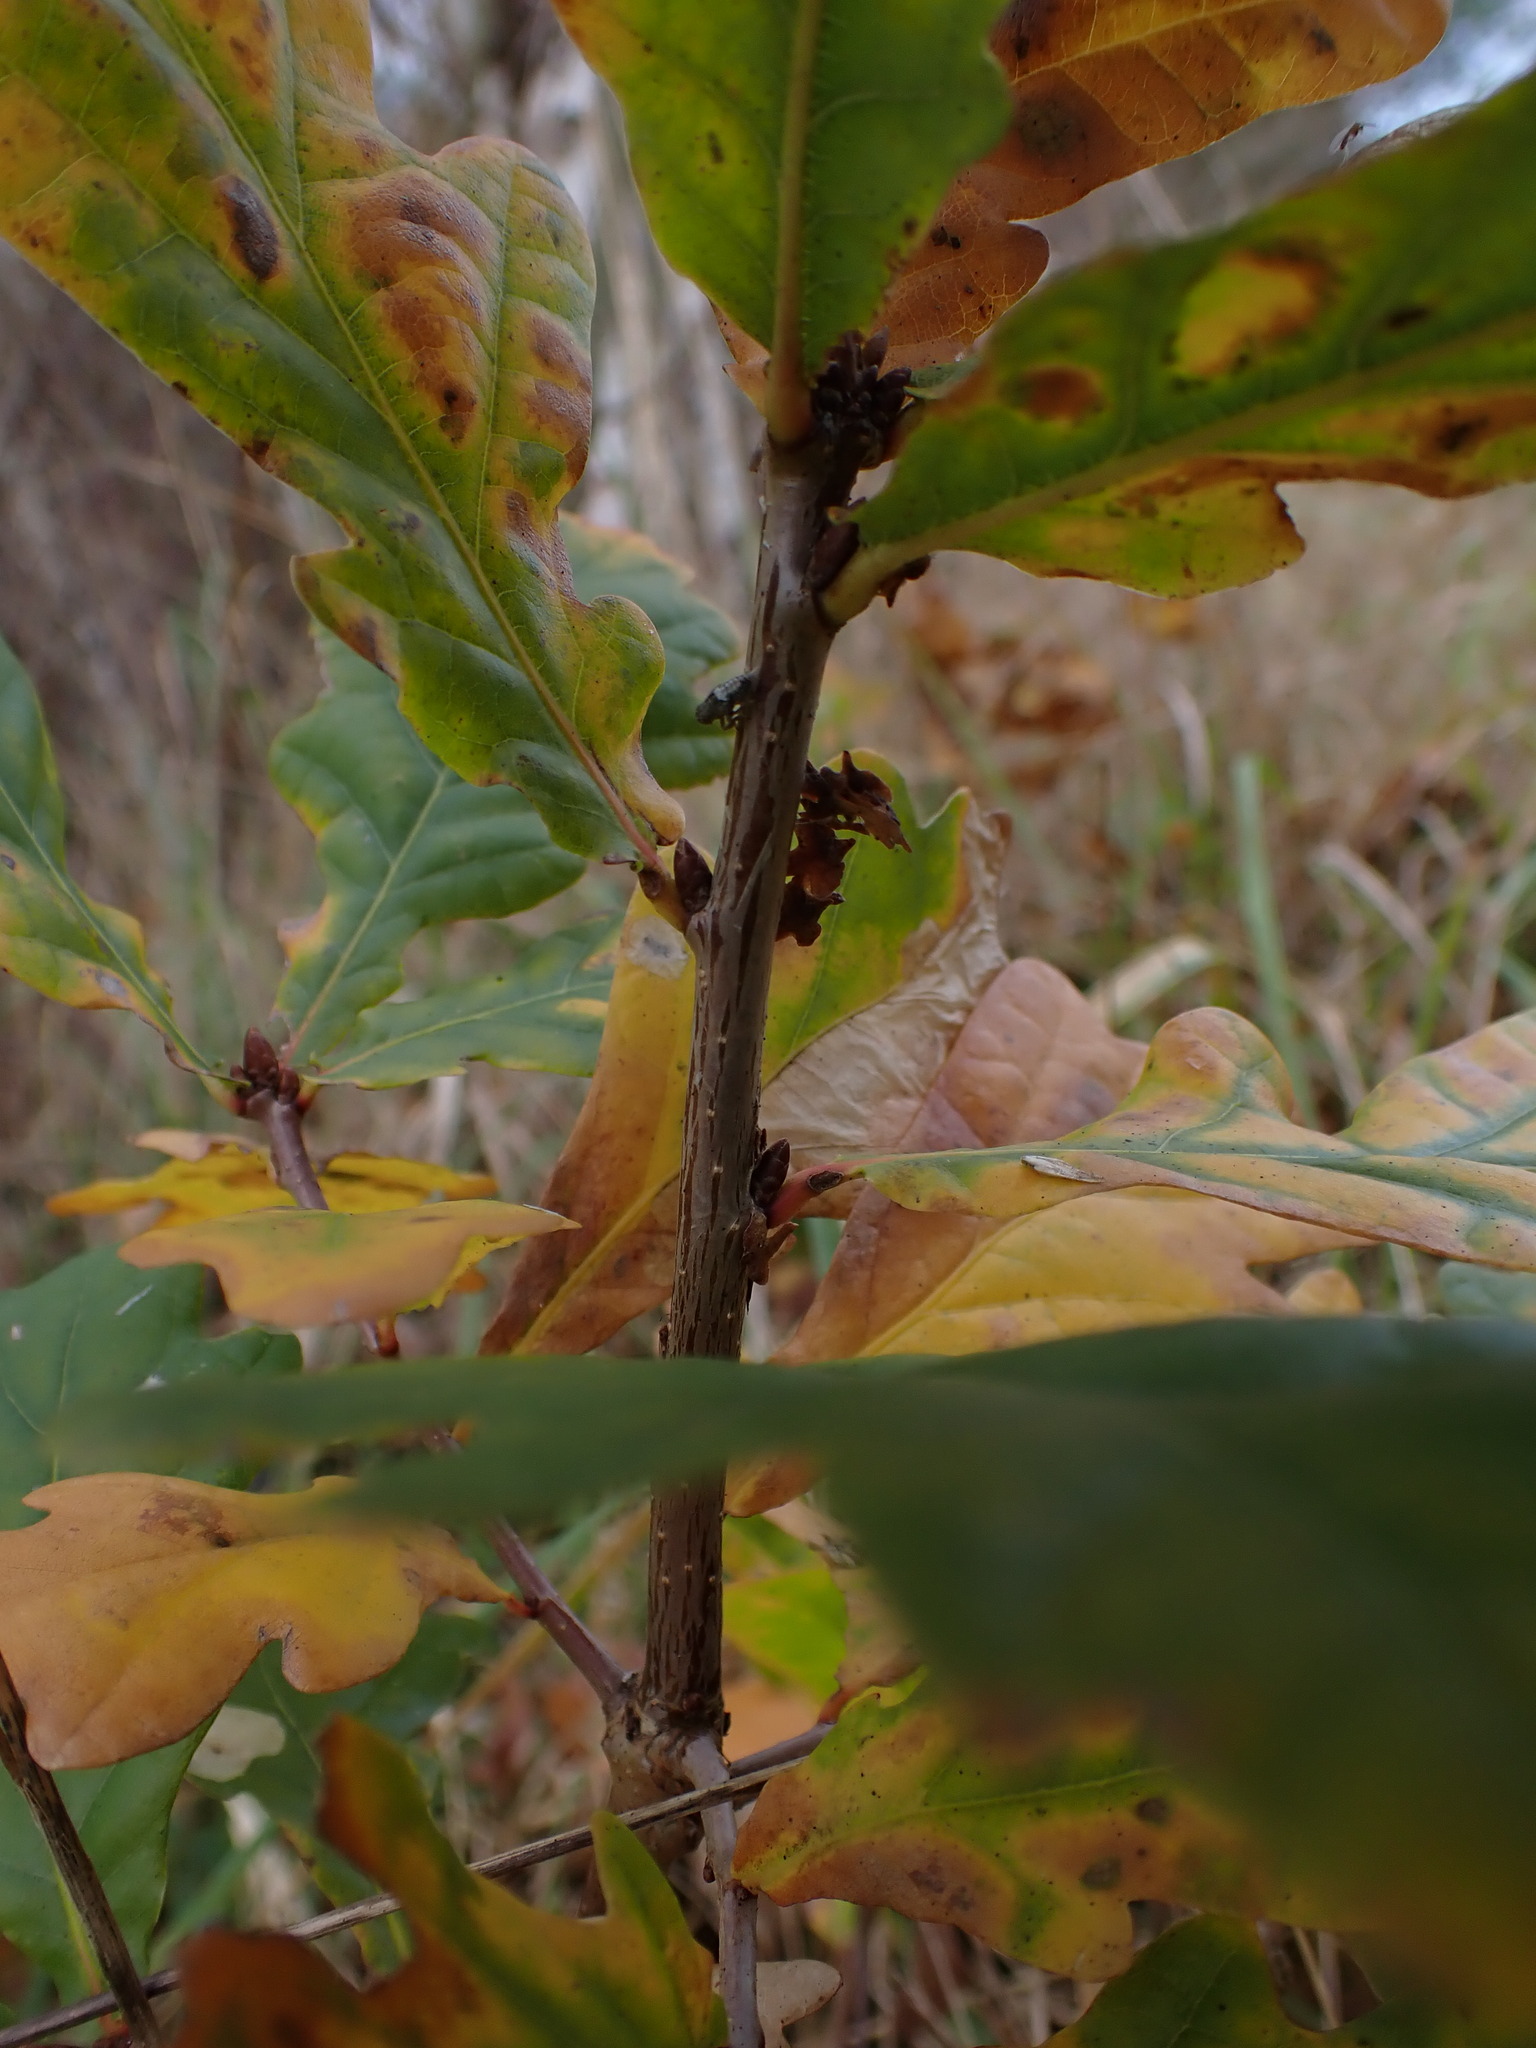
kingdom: Plantae
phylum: Tracheophyta
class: Magnoliopsida
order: Fagales
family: Fagaceae
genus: Quercus
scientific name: Quercus robur
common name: Pedunculate oak
